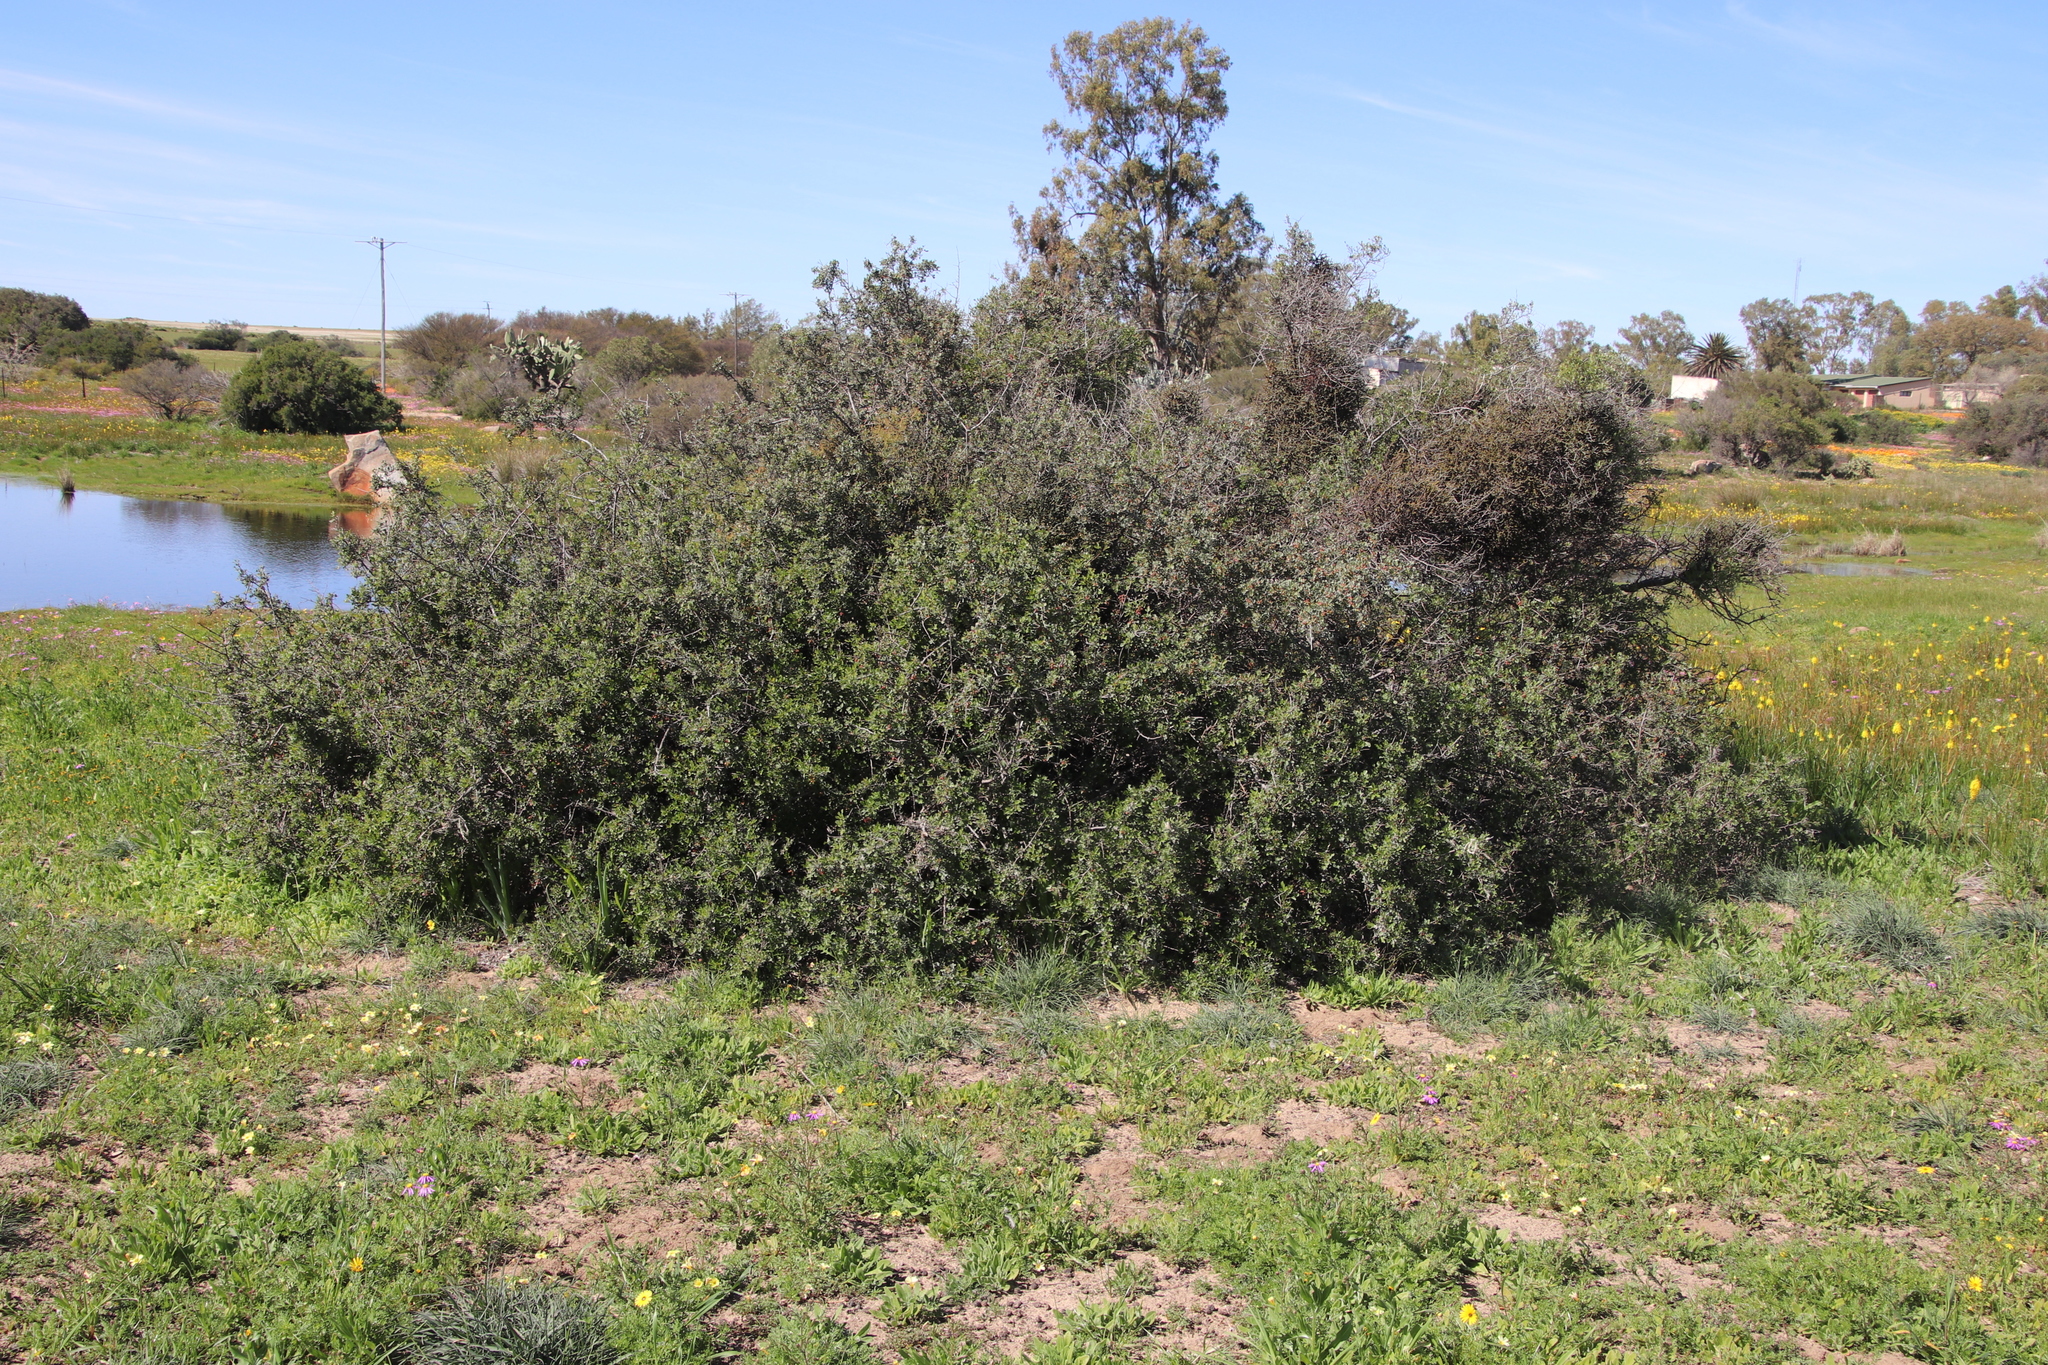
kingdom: Plantae
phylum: Tracheophyta
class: Magnoliopsida
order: Sapindales
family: Anacardiaceae
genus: Searsia
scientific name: Searsia undulata
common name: Namaqua kunibush
